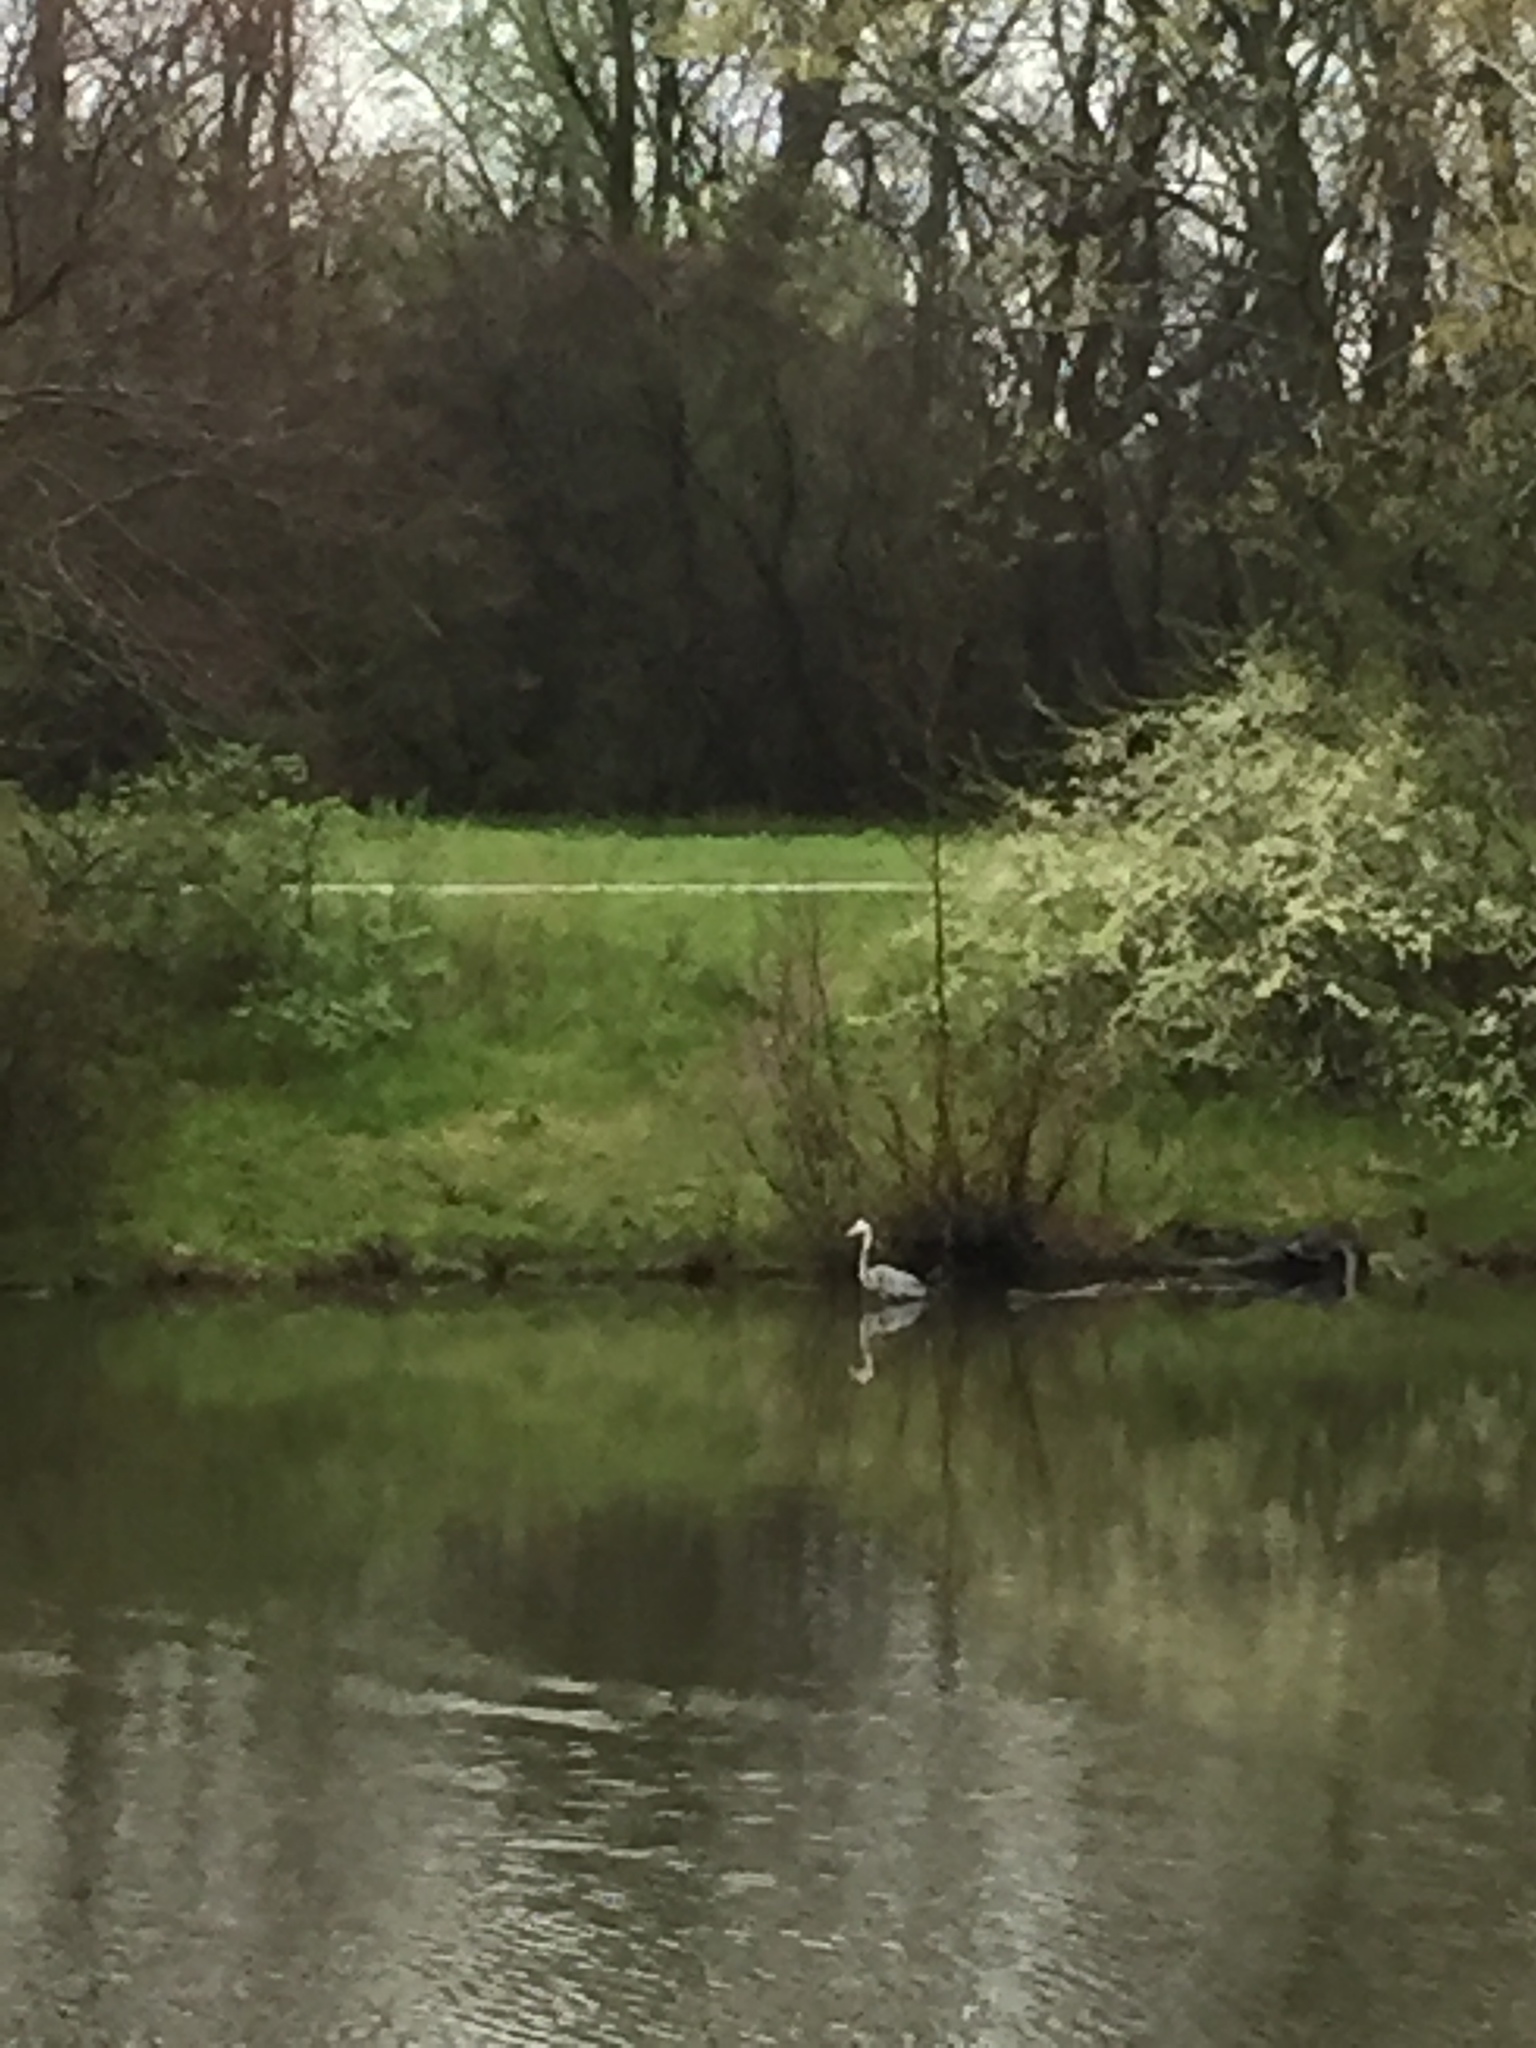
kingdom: Animalia
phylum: Chordata
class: Aves
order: Pelecaniformes
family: Ardeidae
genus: Ardea
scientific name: Ardea herodias
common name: Great blue heron
